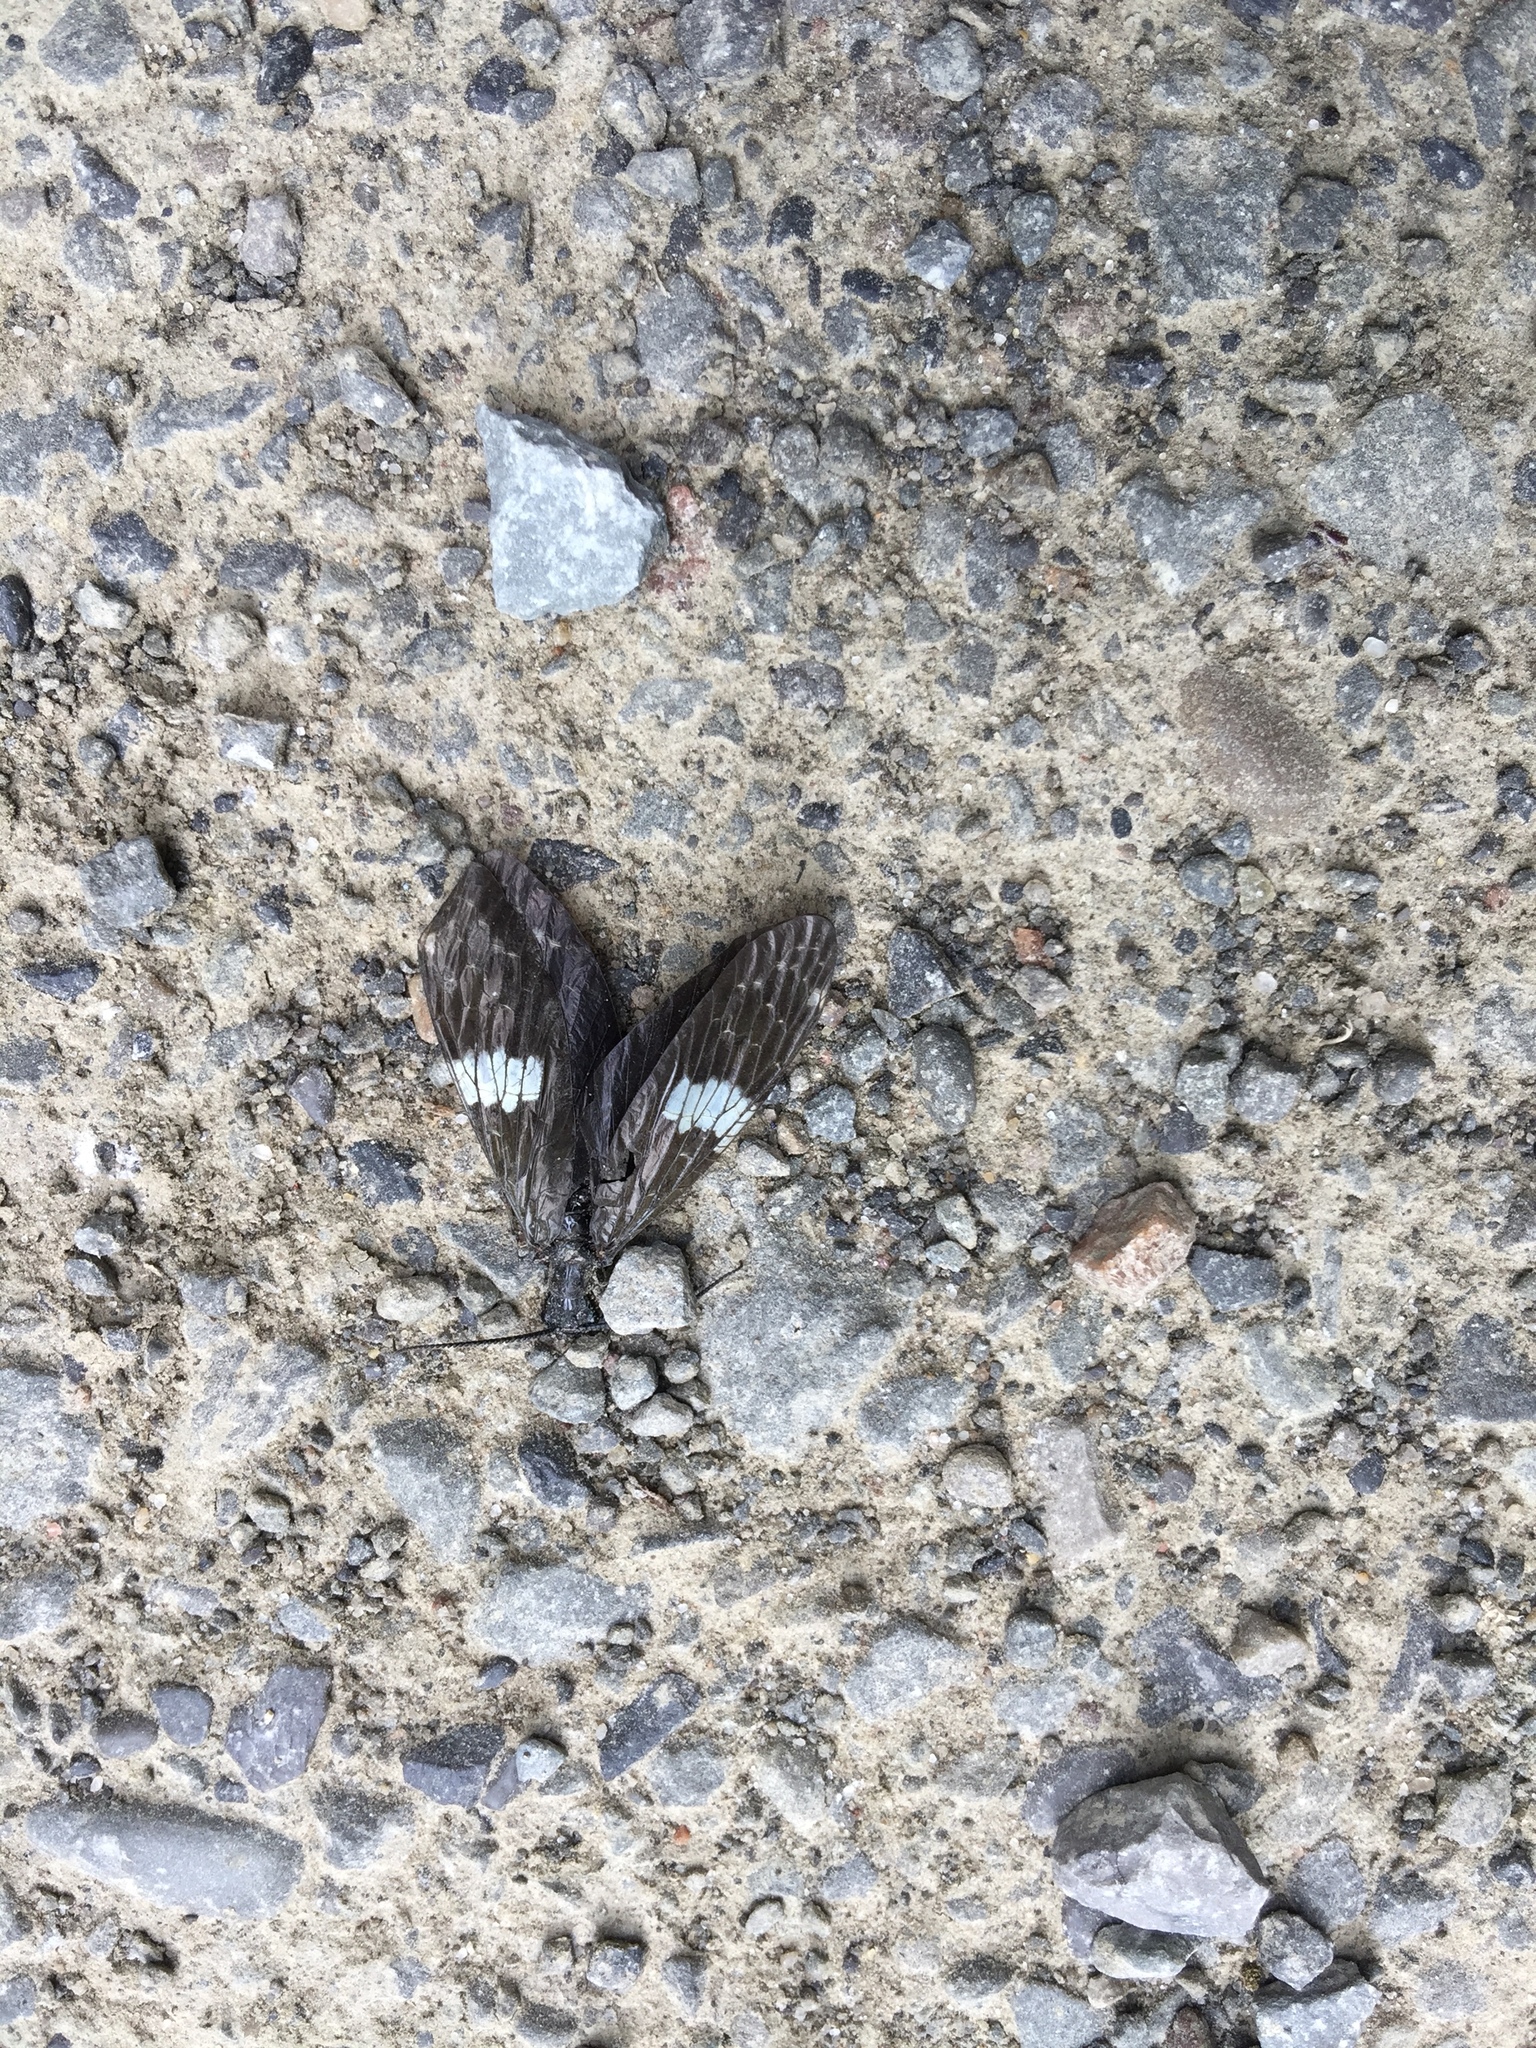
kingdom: Animalia
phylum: Arthropoda
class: Insecta
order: Megaloptera
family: Corydalidae
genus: Nigronia
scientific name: Nigronia serricornis
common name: Serrate dark fishfly
